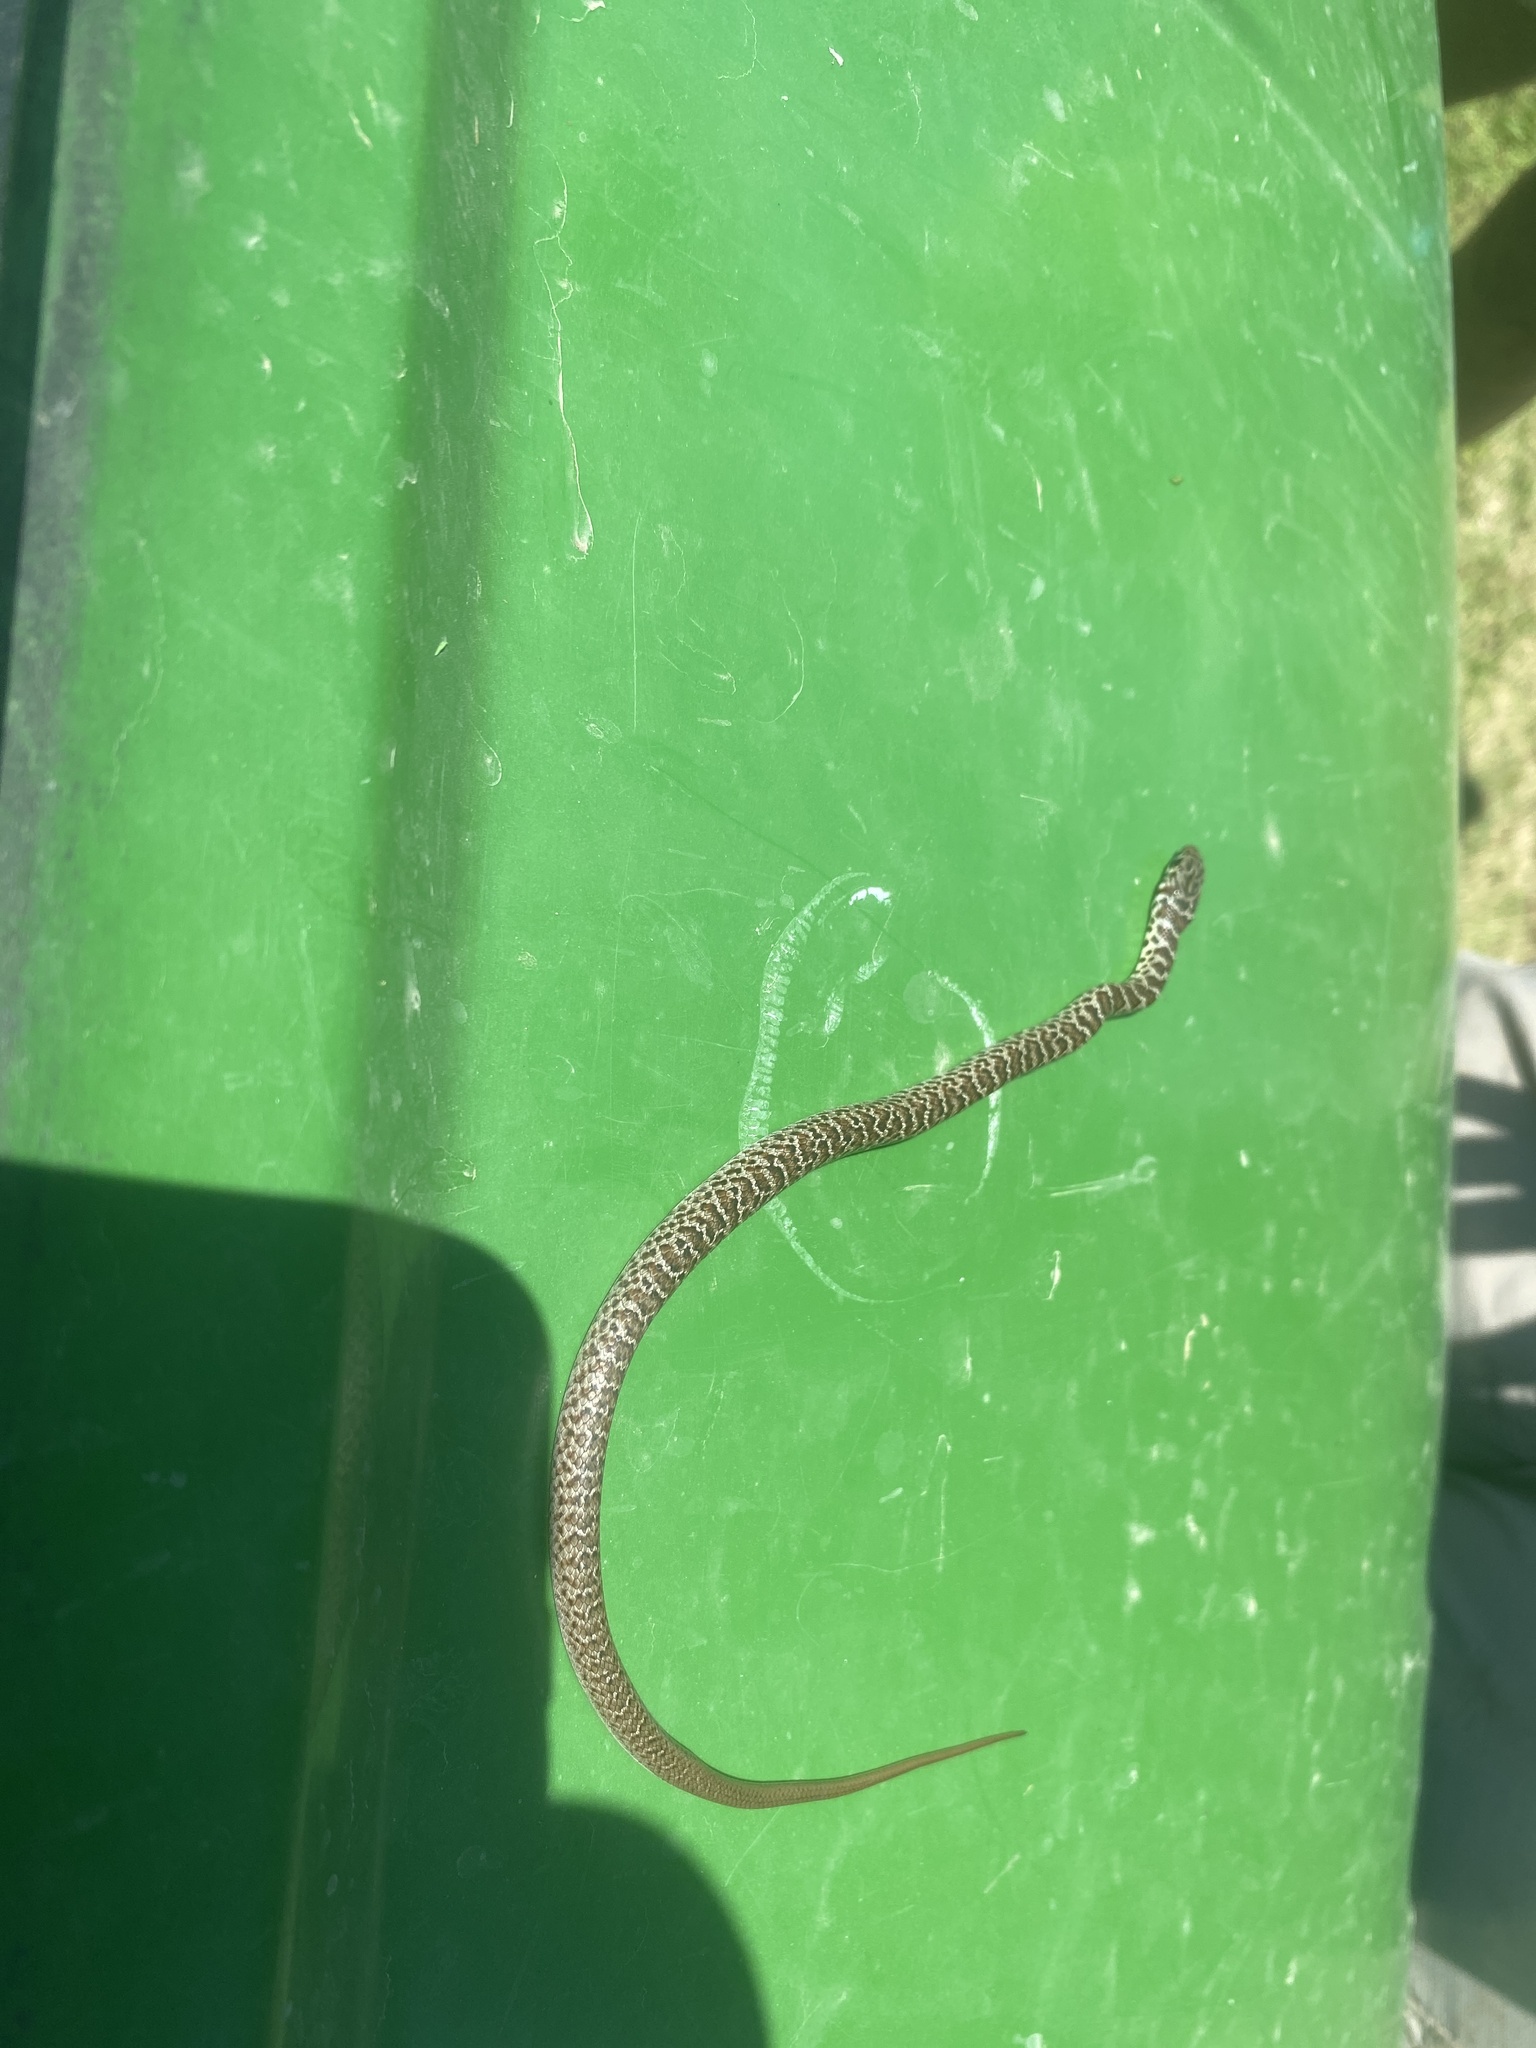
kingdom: Animalia
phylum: Chordata
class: Squamata
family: Colubridae
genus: Coluber
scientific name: Coluber constrictor
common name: Eastern racer
